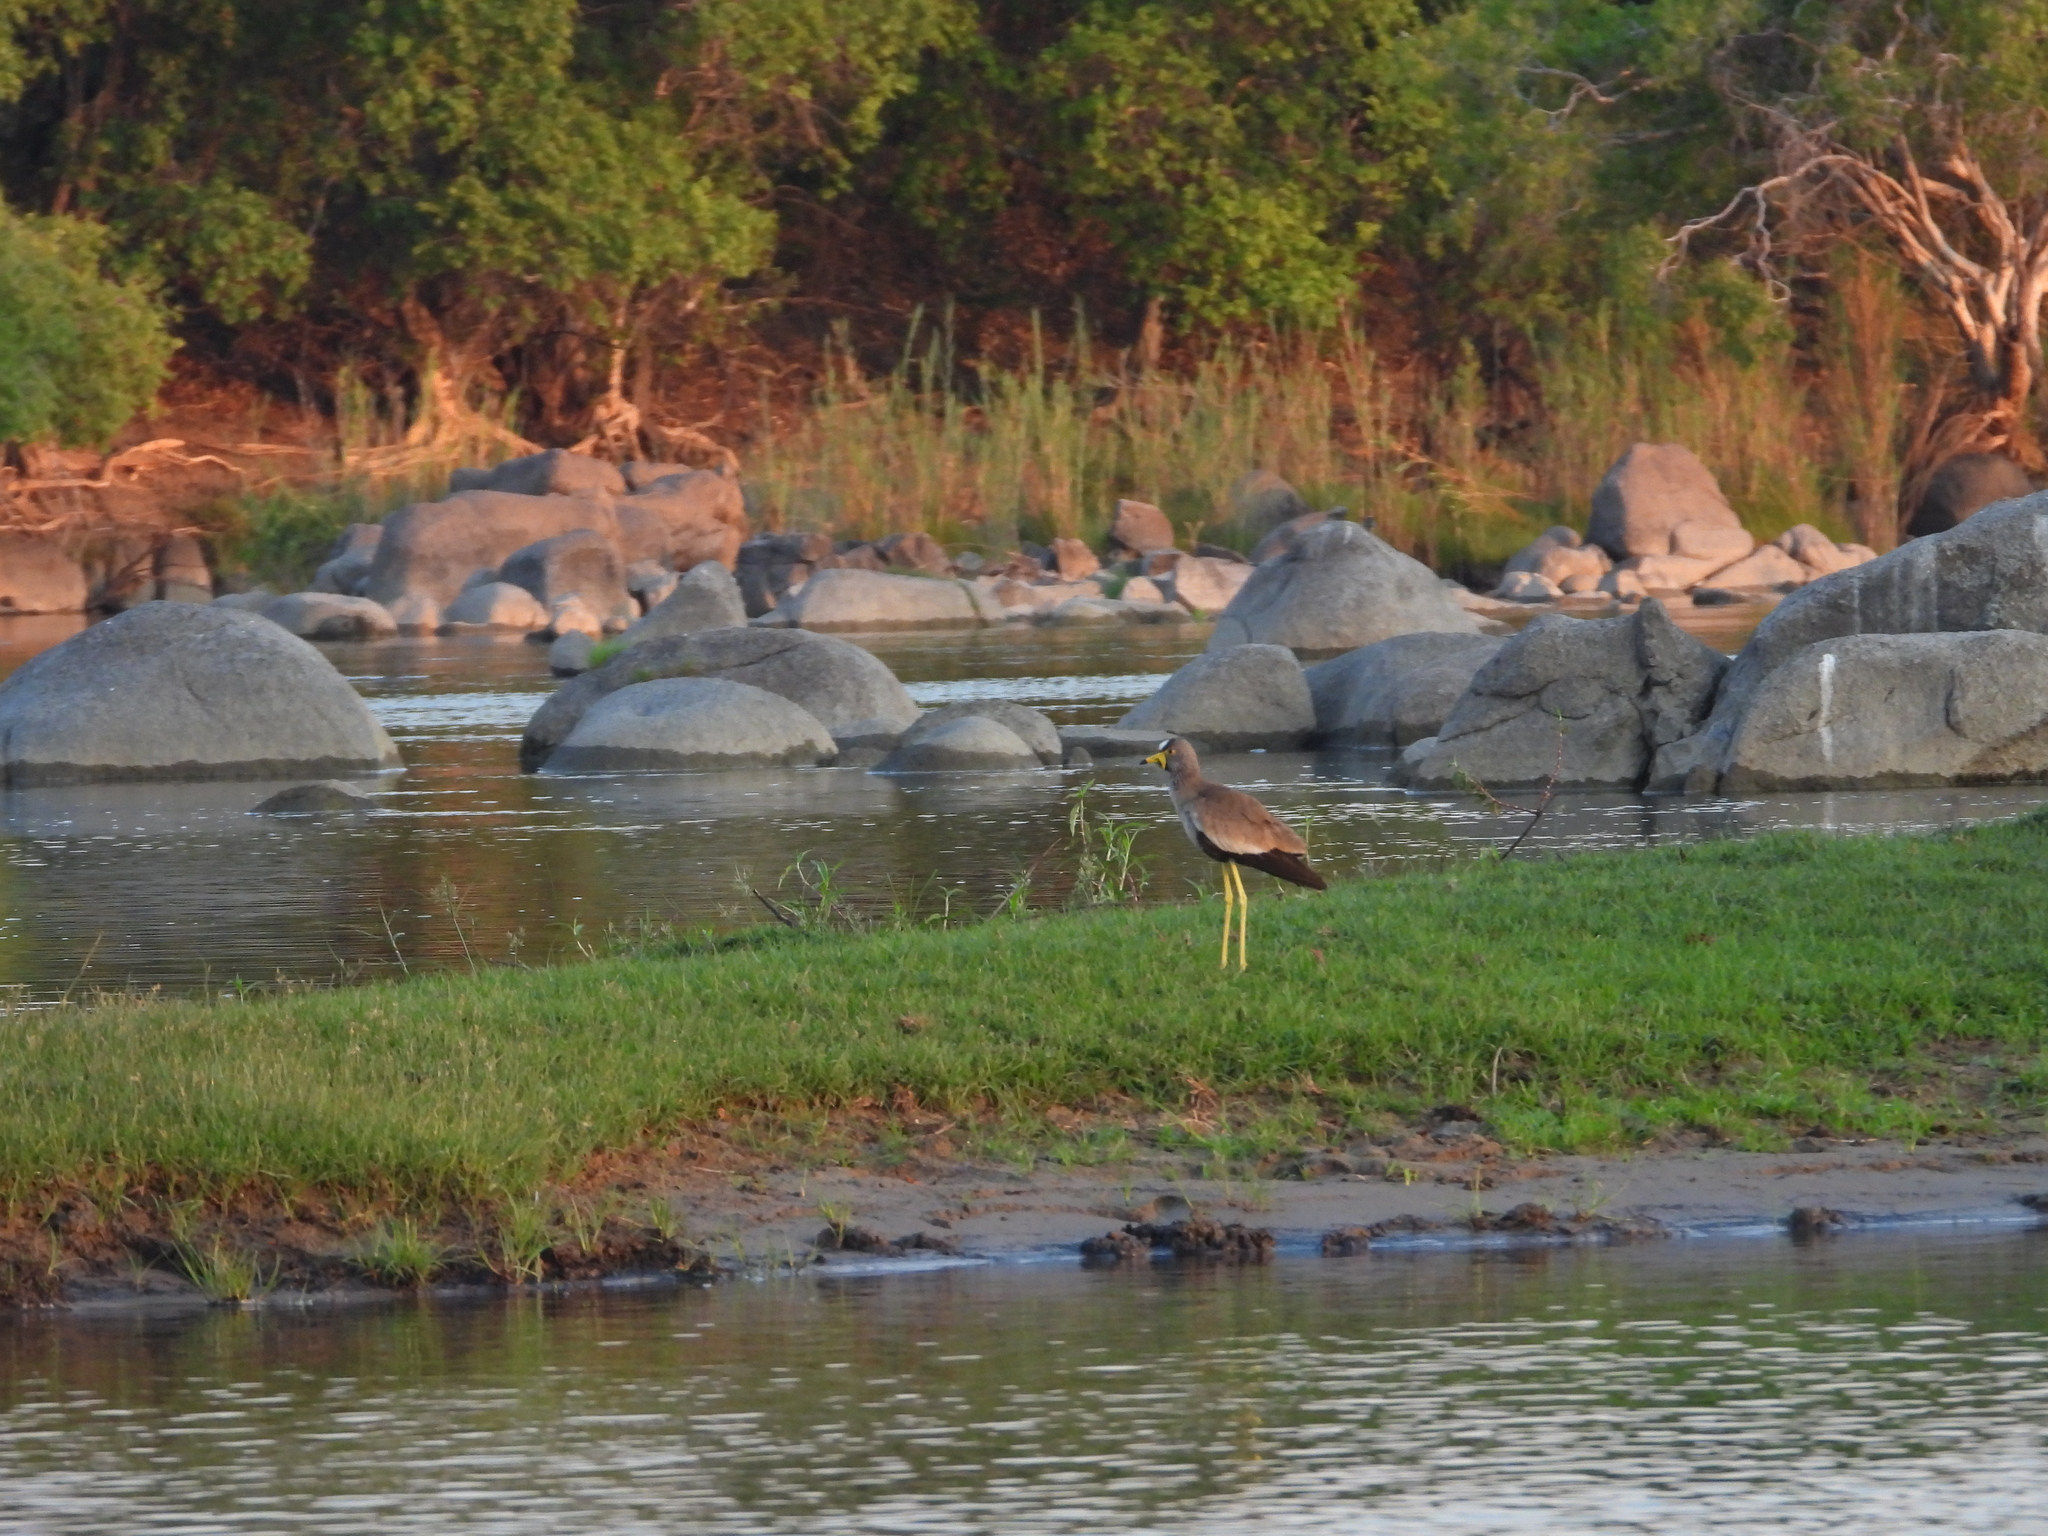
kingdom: Animalia
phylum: Chordata
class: Aves
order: Charadriiformes
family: Charadriidae
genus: Vanellus
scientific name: Vanellus senegallus
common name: African wattled lapwing
